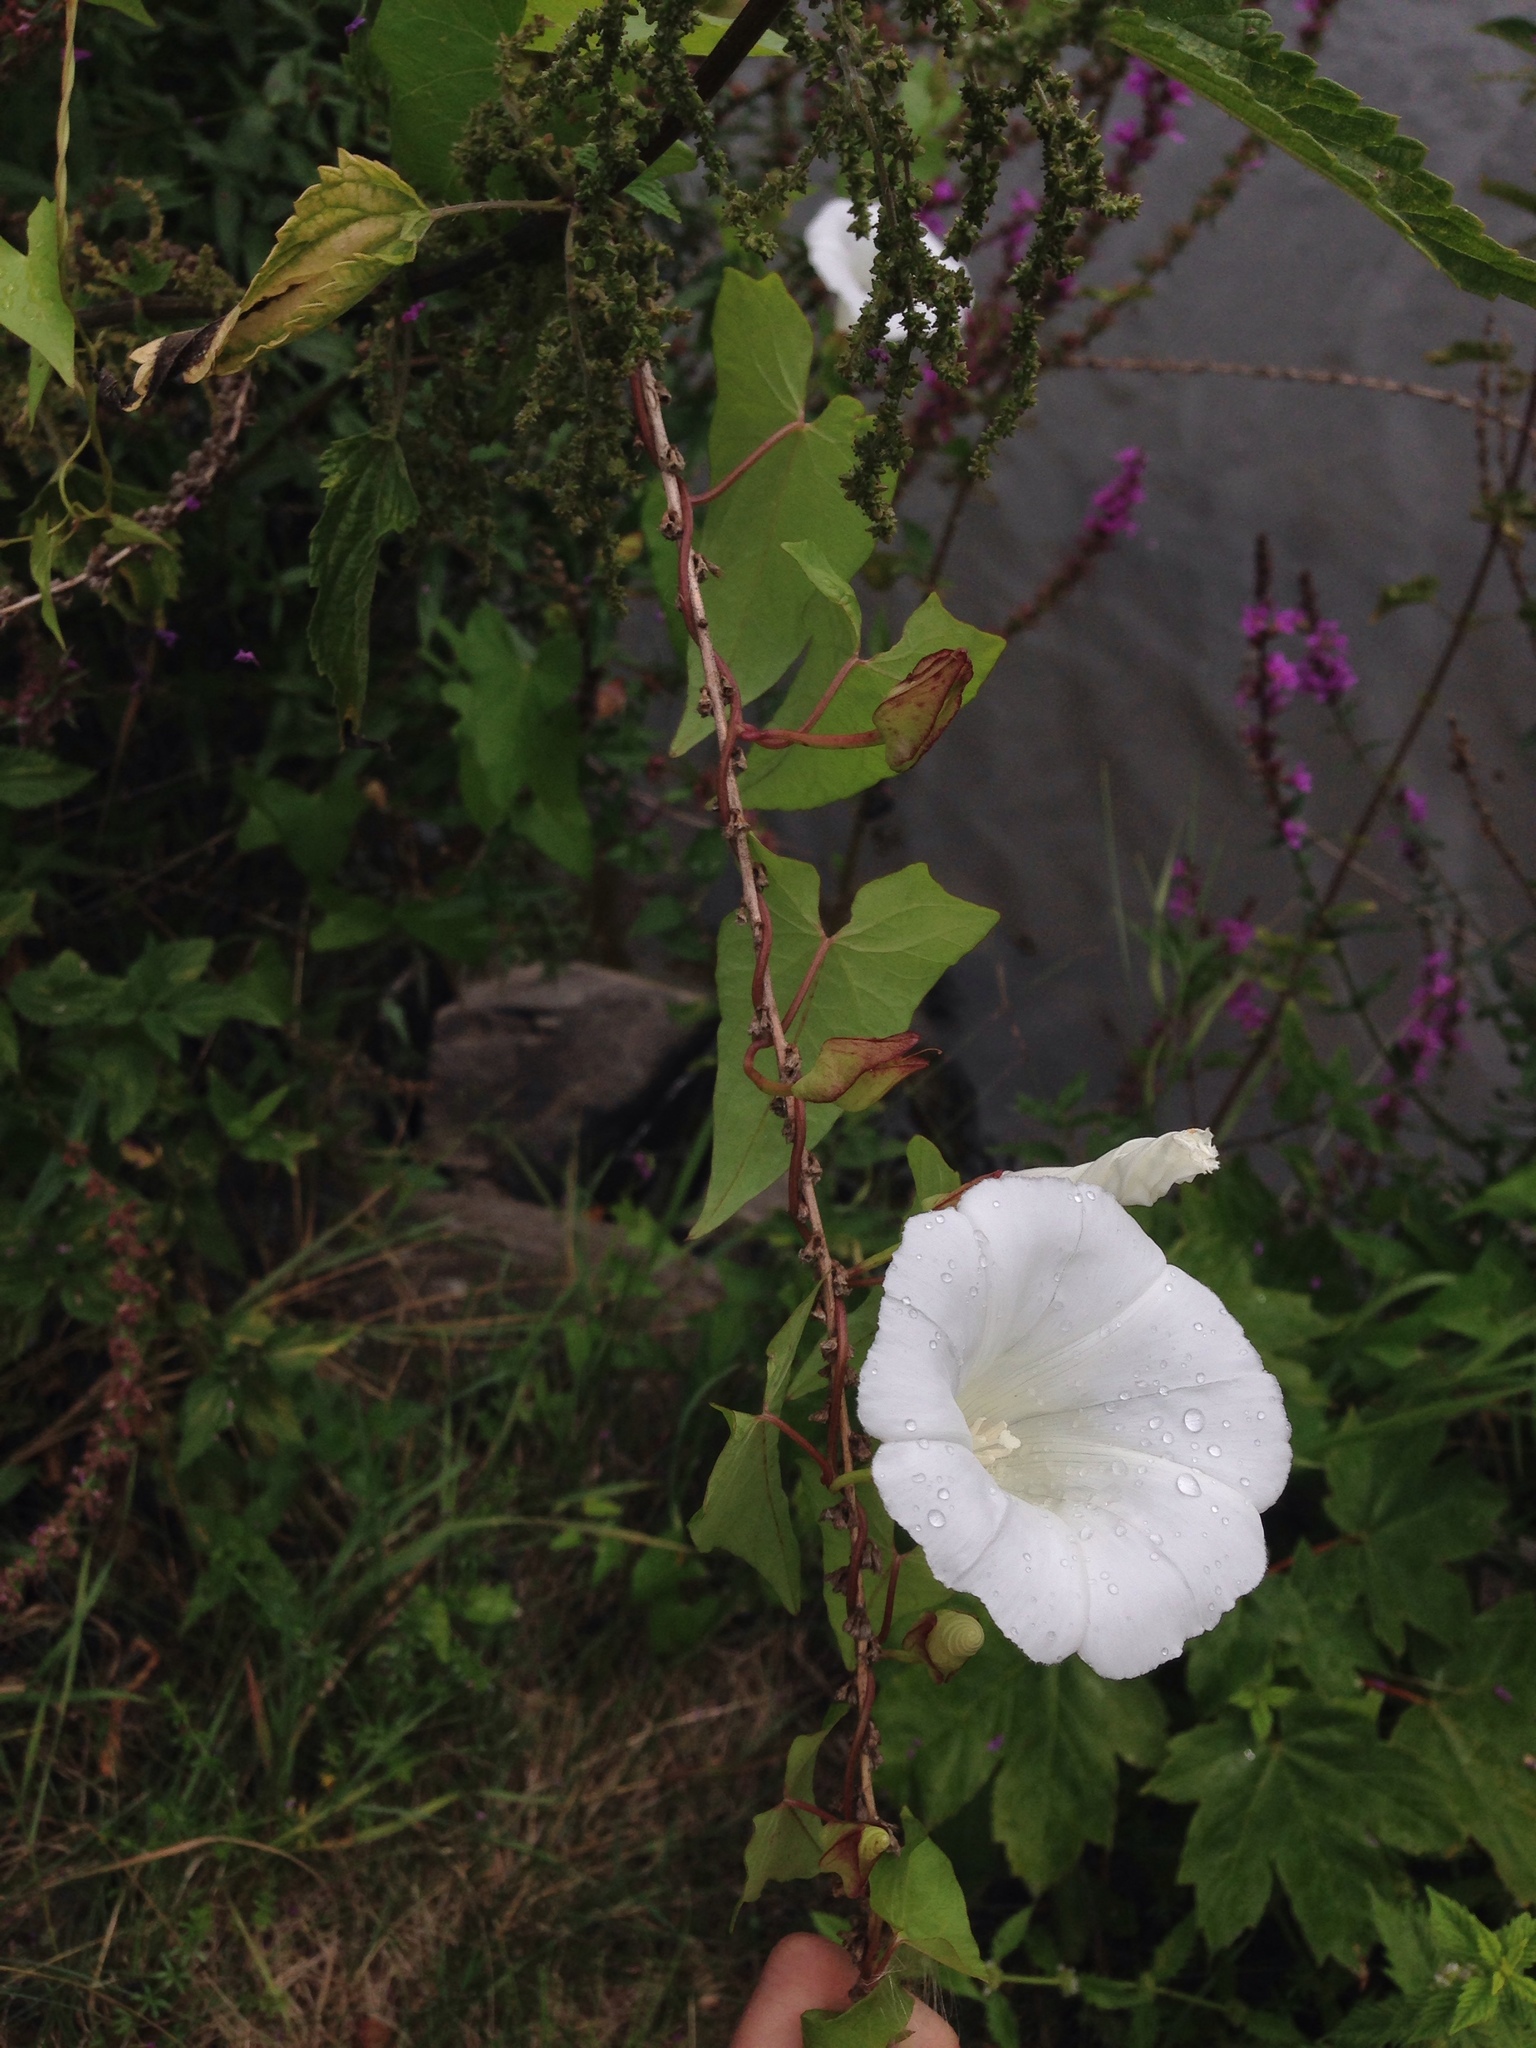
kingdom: Plantae
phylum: Tracheophyta
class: Magnoliopsida
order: Solanales
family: Convolvulaceae
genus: Calystegia
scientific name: Calystegia sepium
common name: Hedge bindweed
